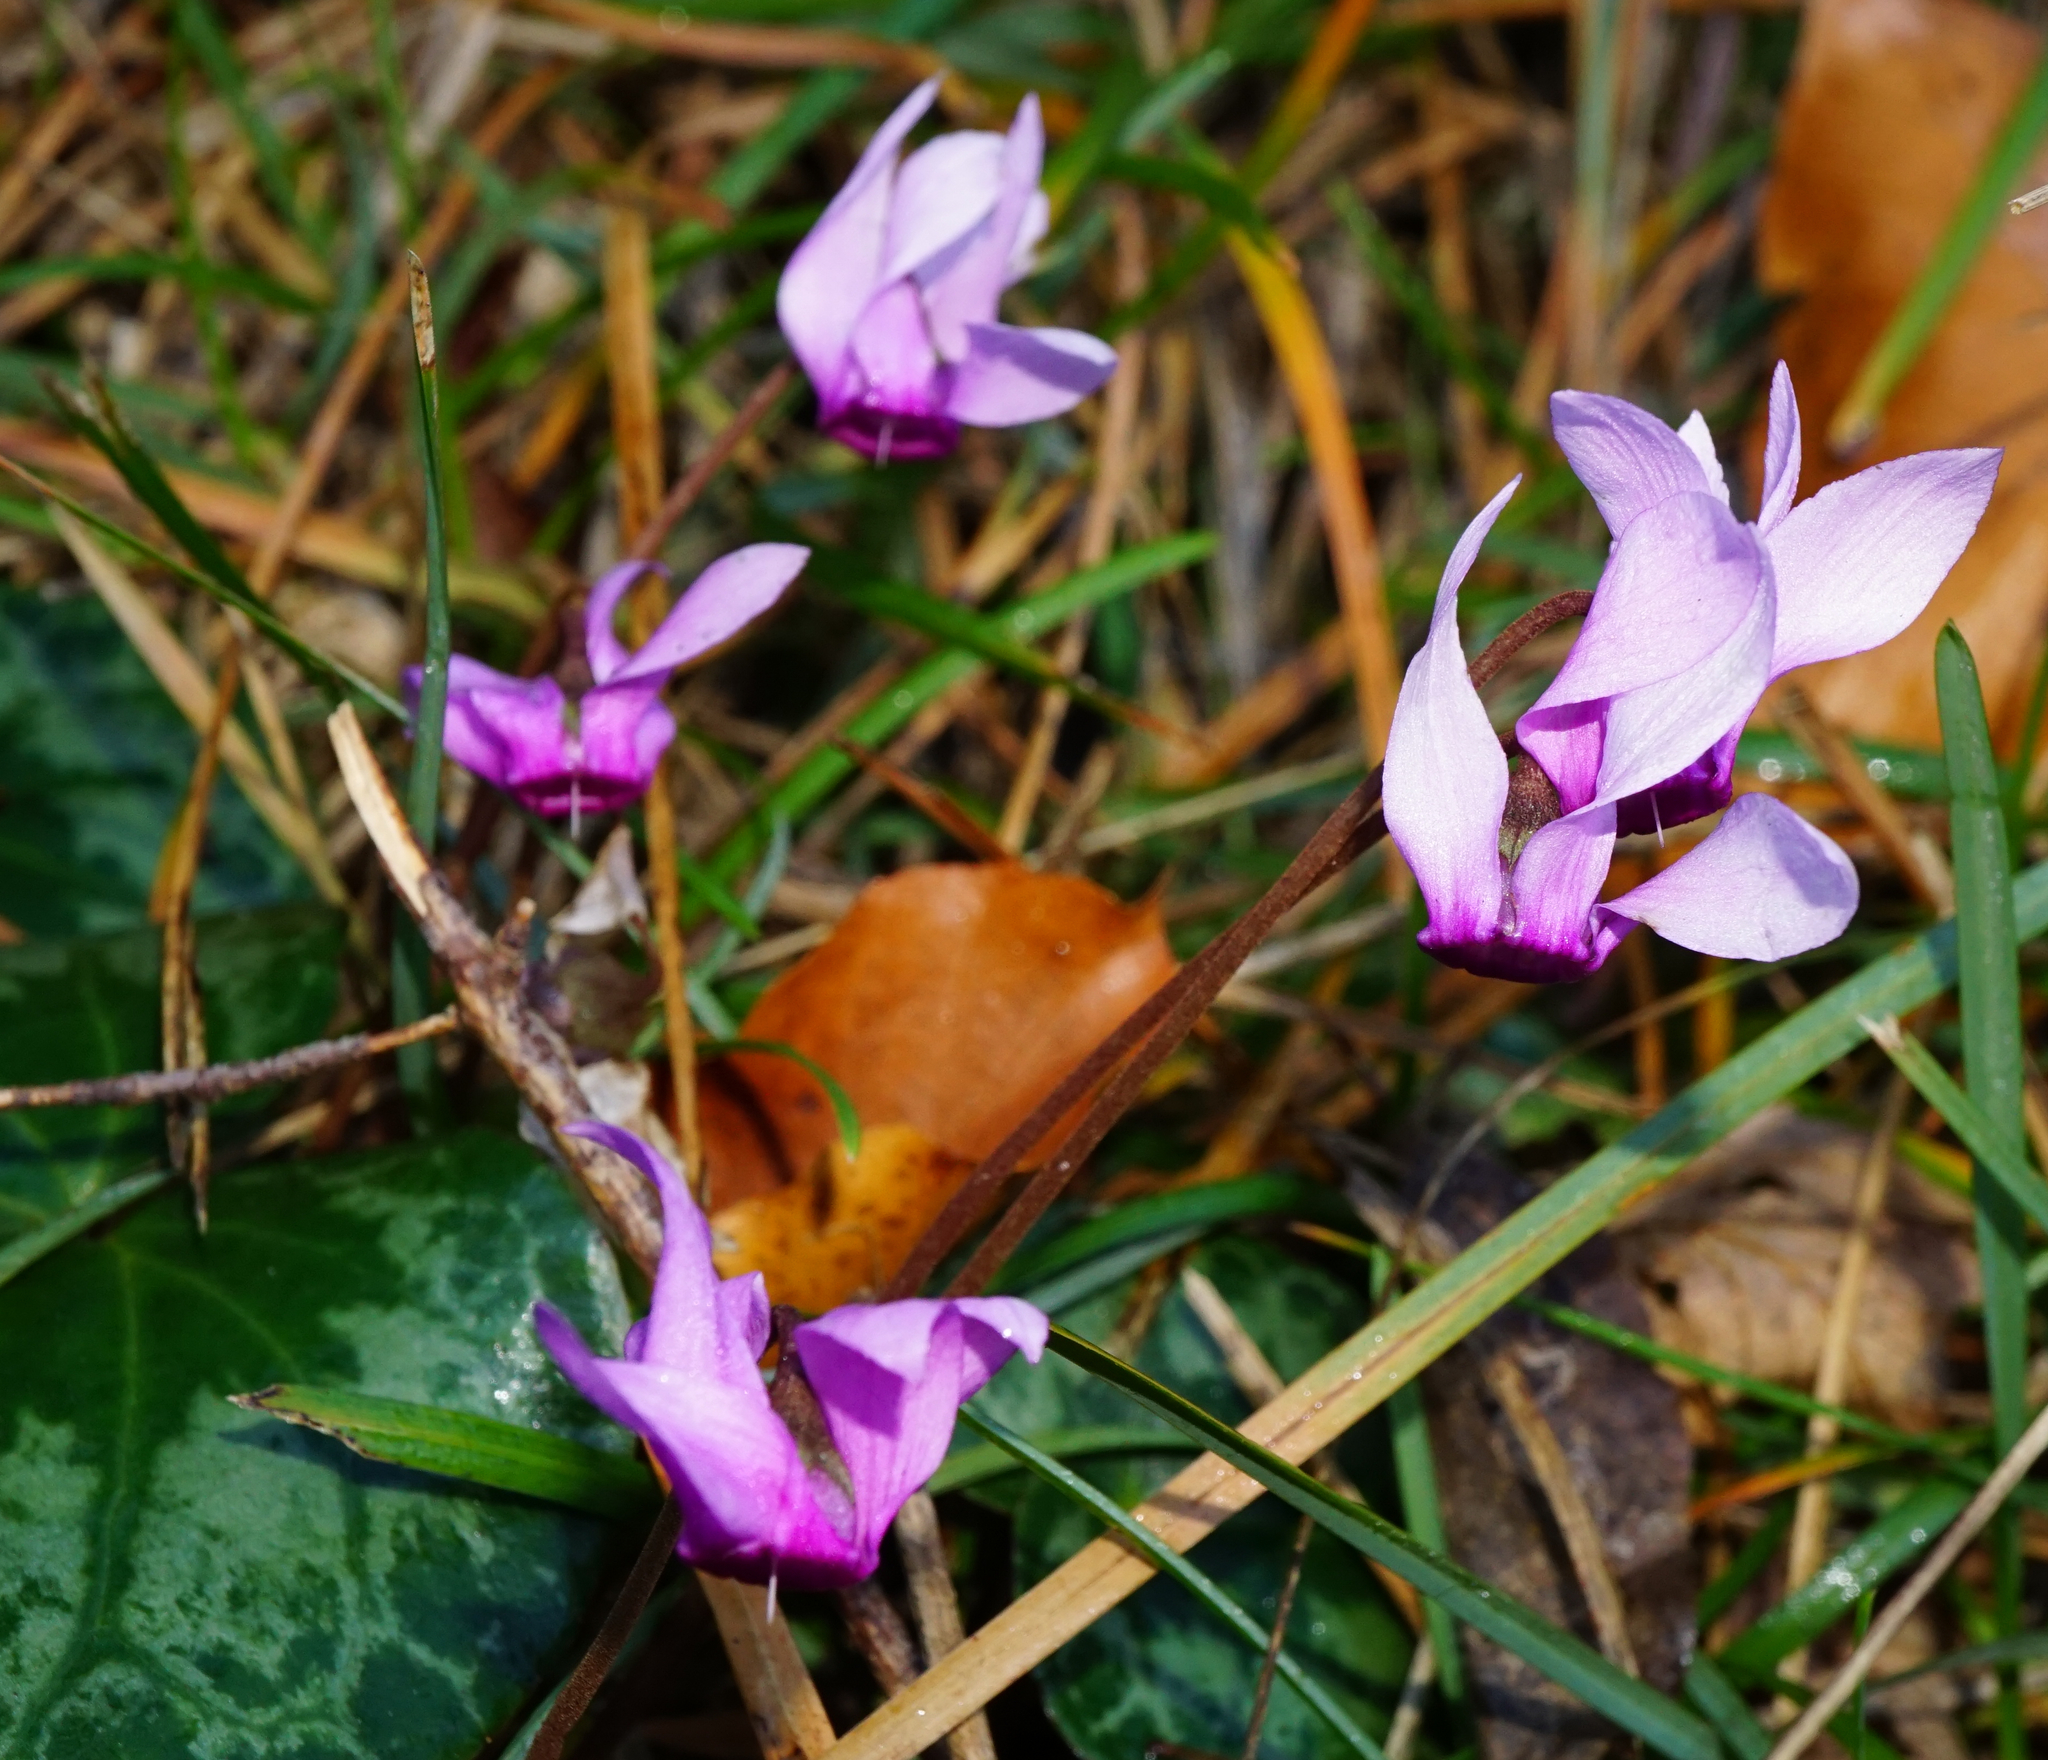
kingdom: Plantae
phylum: Tracheophyta
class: Magnoliopsida
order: Ericales
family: Primulaceae
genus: Cyclamen
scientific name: Cyclamen purpurascens
